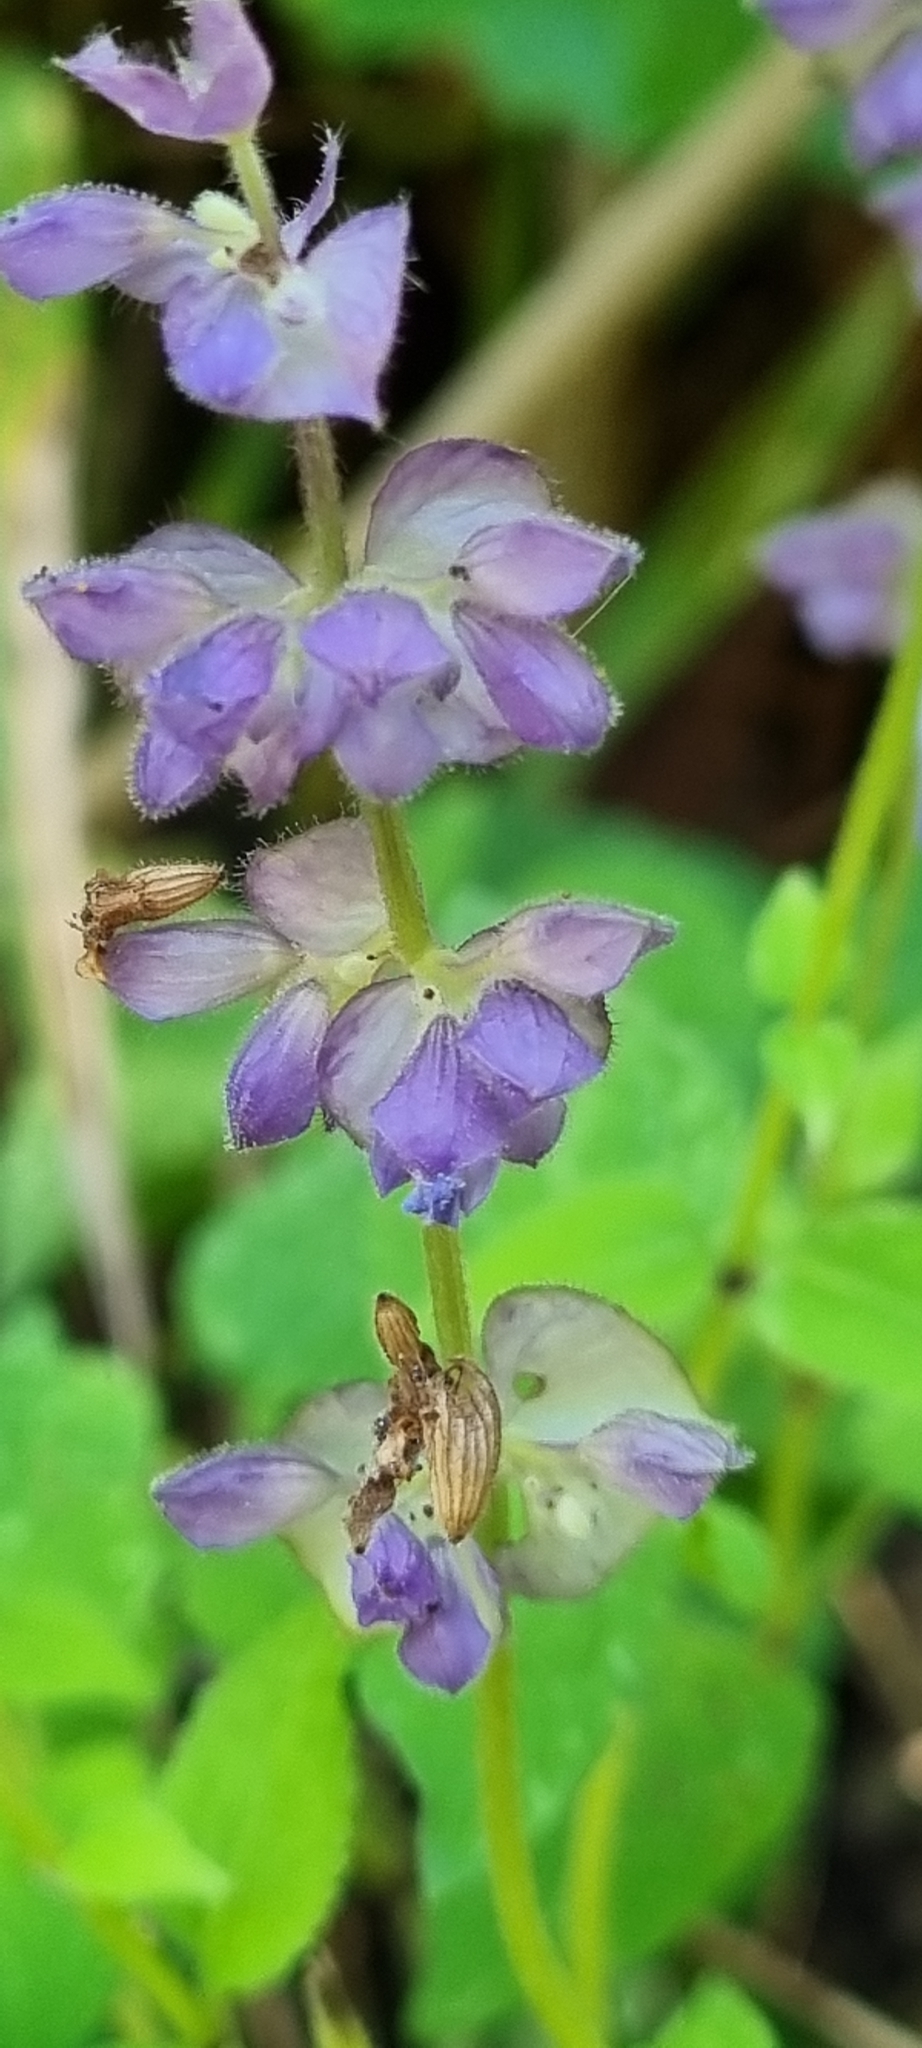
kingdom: Plantae
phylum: Tracheophyta
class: Magnoliopsida
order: Lamiales
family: Lamiaceae
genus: Salvia
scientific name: Salvia compsostachys
